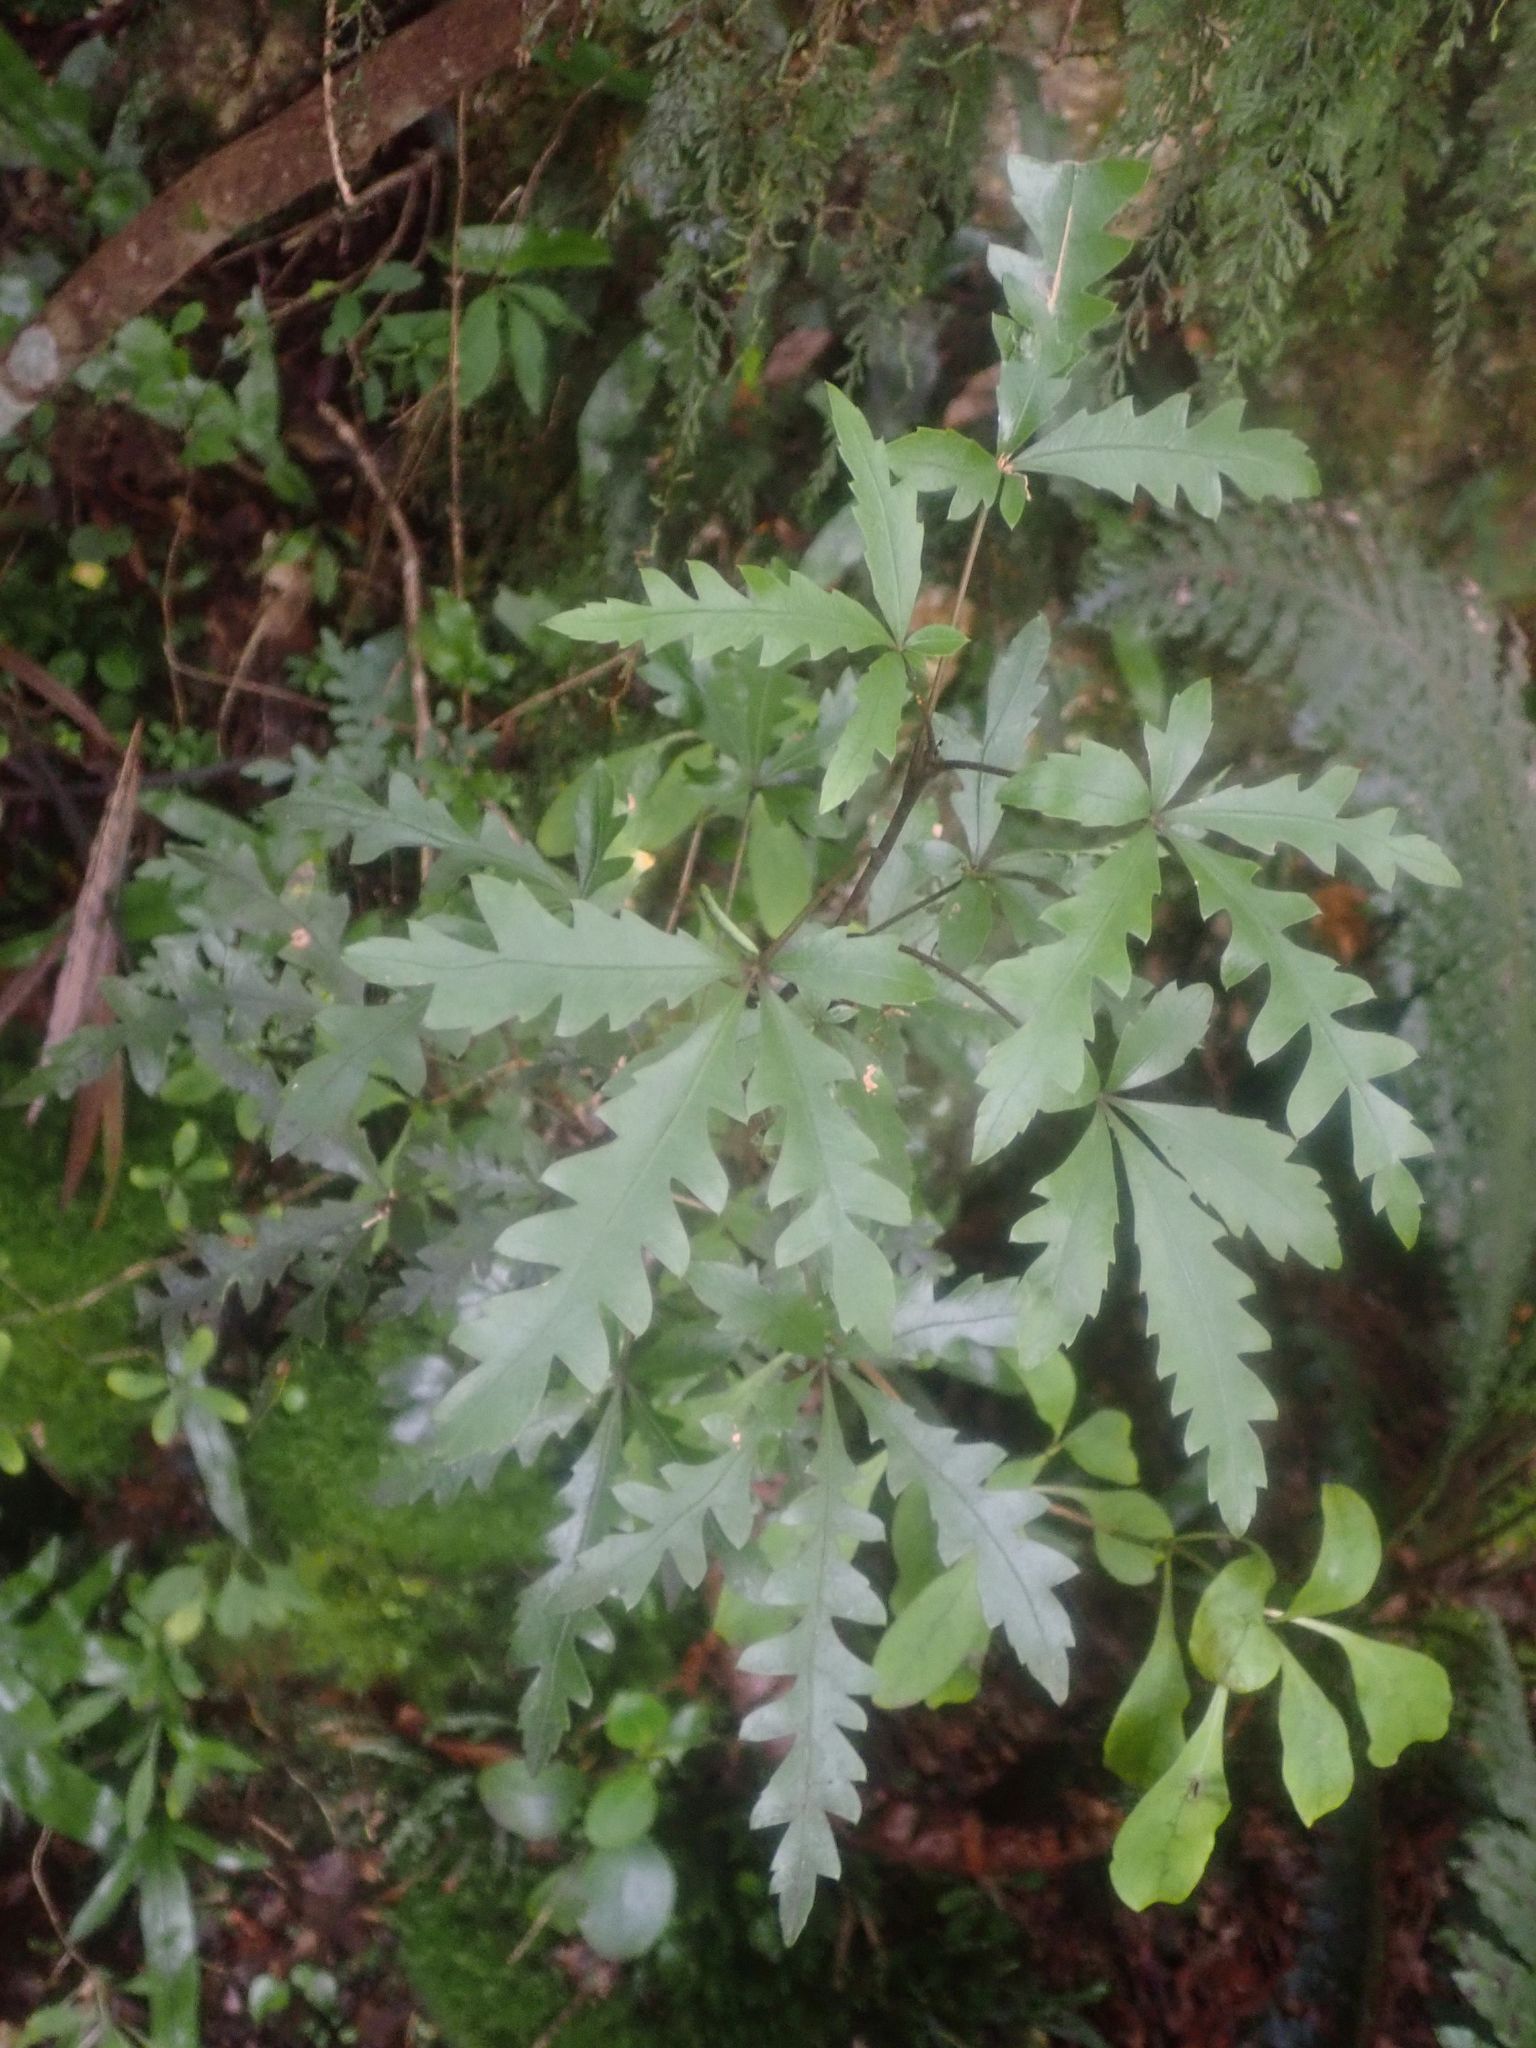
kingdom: Plantae
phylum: Tracheophyta
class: Magnoliopsida
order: Apiales
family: Araliaceae
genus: Raukaua
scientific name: Raukaua edgerleyi
